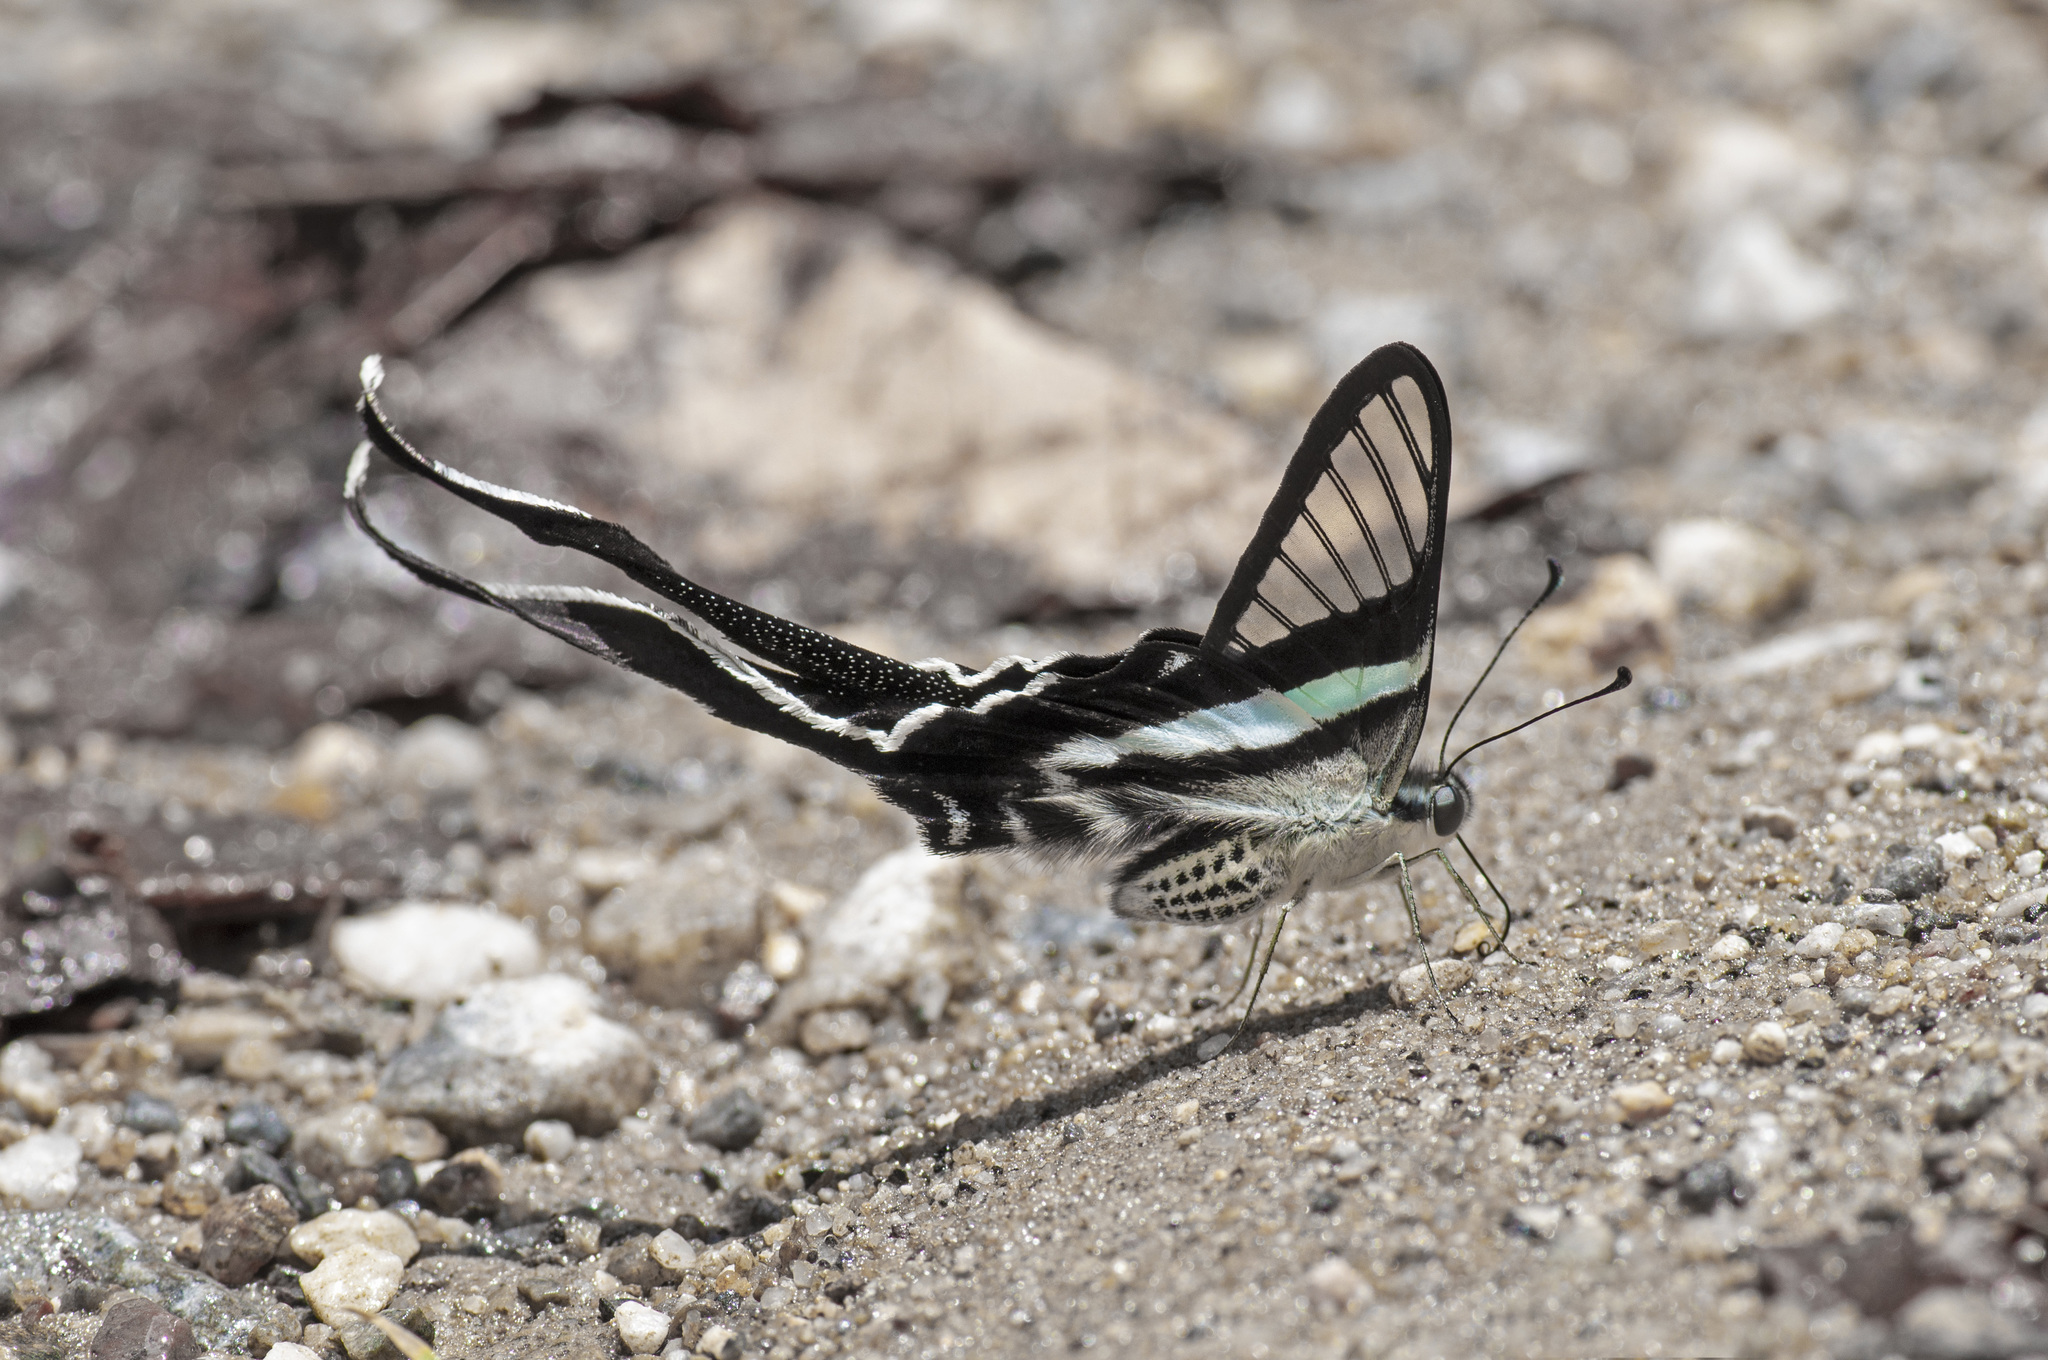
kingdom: Animalia
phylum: Arthropoda
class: Insecta
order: Lepidoptera
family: Papilionidae
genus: Lamproptera
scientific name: Lamproptera meges
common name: Green dragontail
